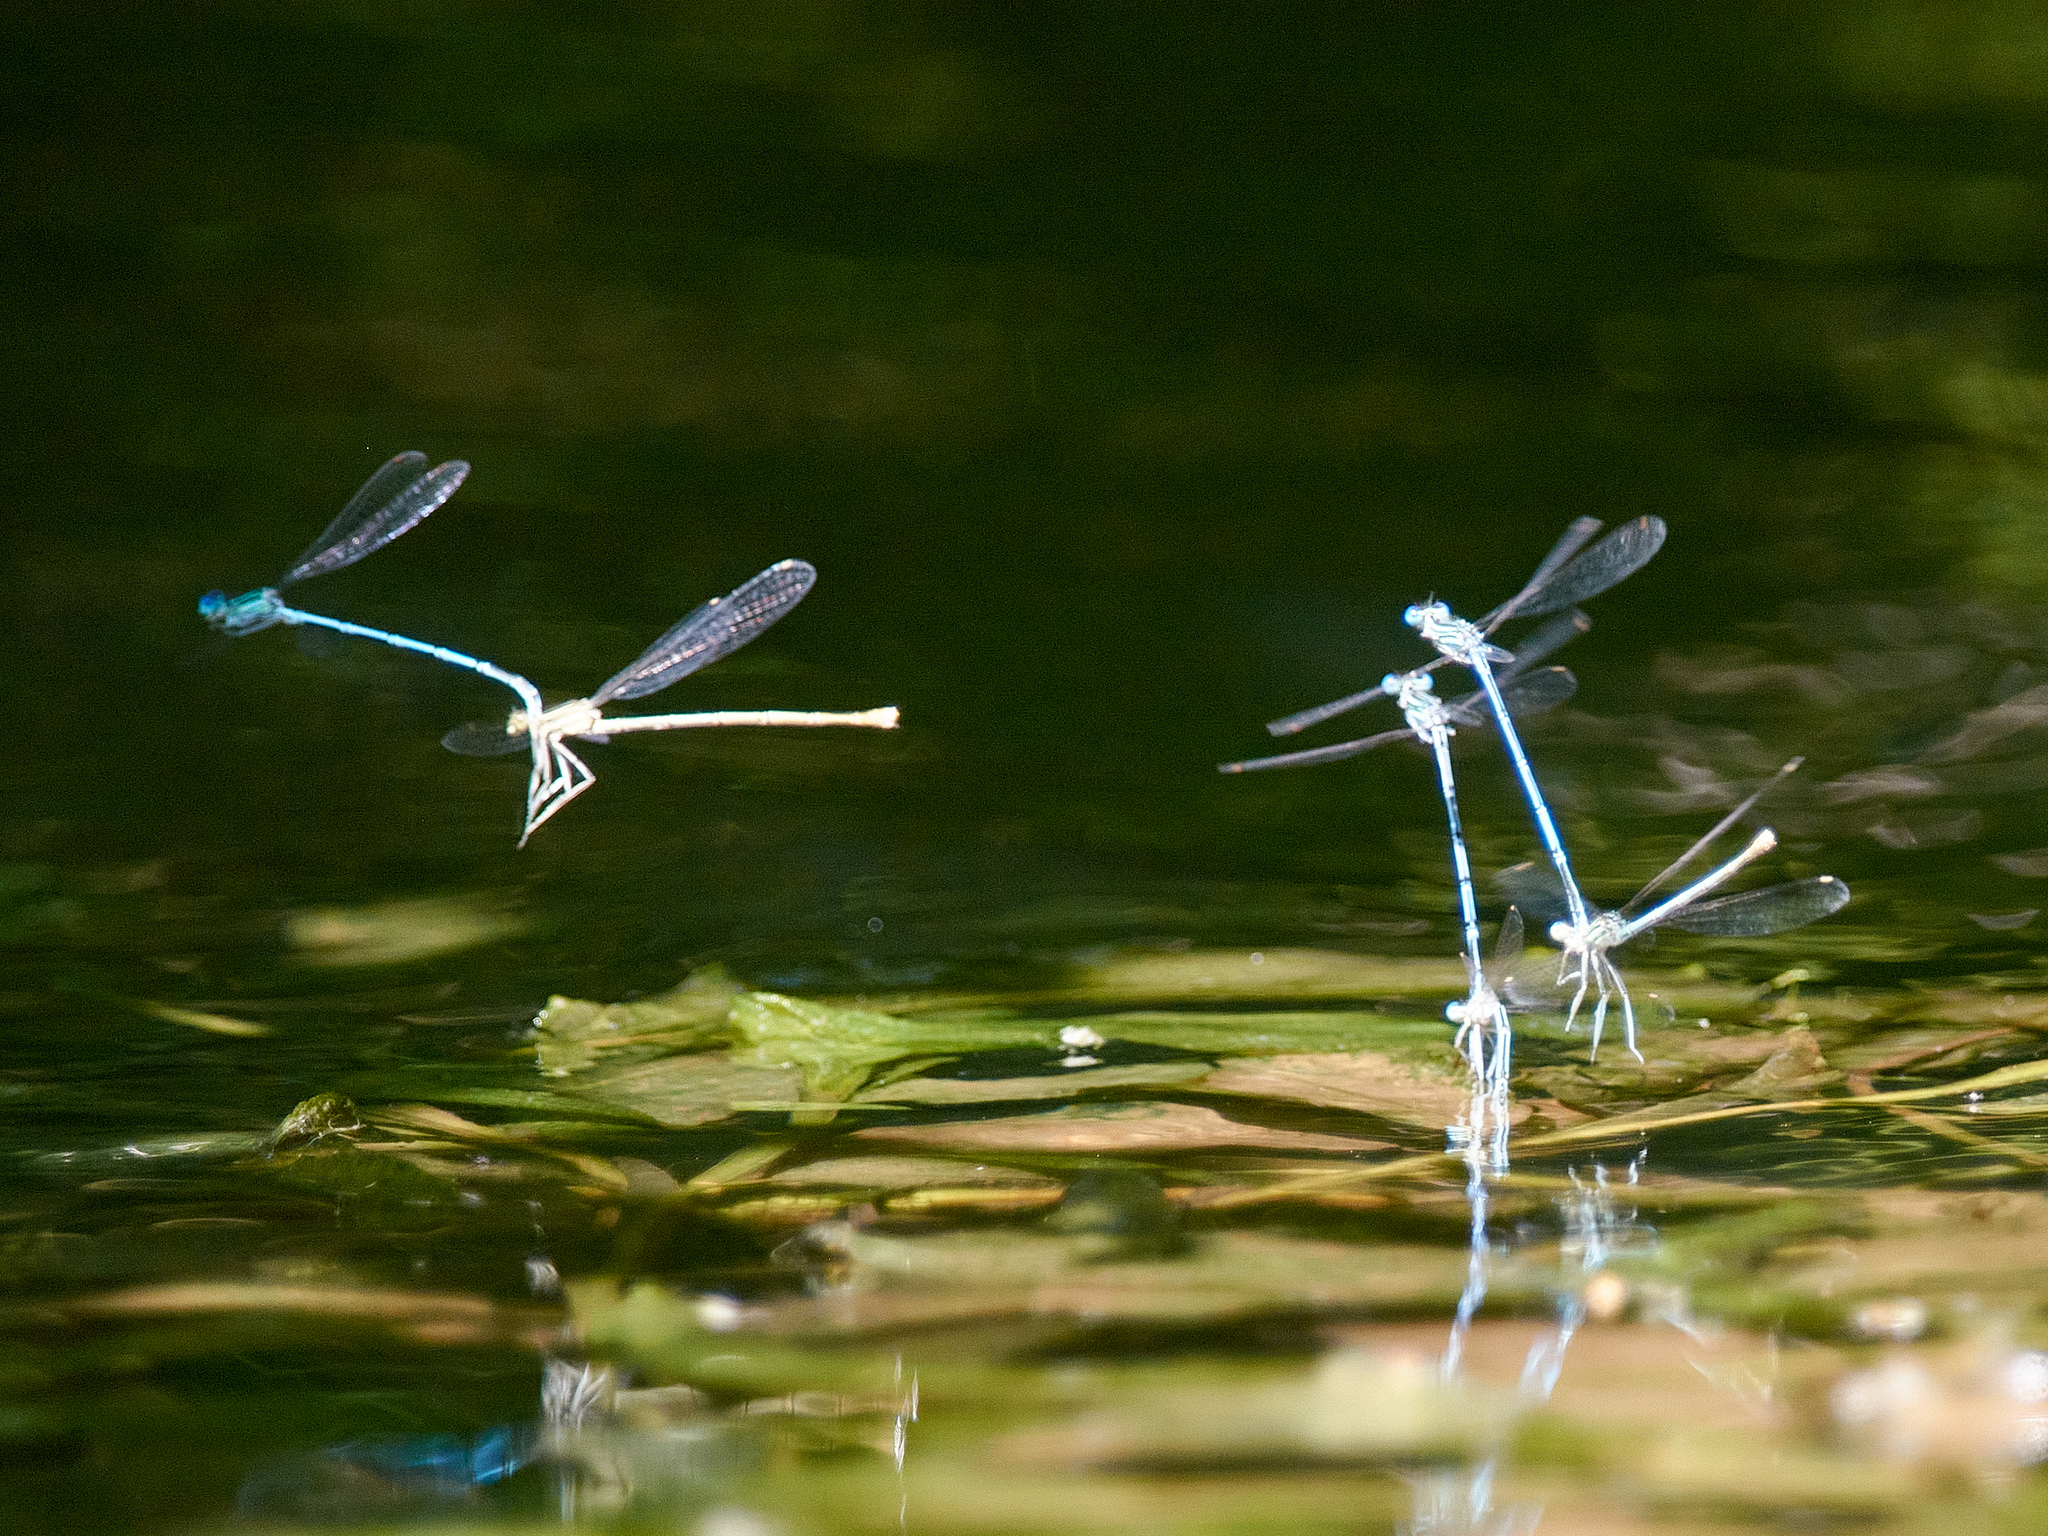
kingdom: Animalia
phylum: Arthropoda
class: Insecta
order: Odonata
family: Platycnemididae
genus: Platycnemis
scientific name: Platycnemis pennipes
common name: White-legged damselfly
